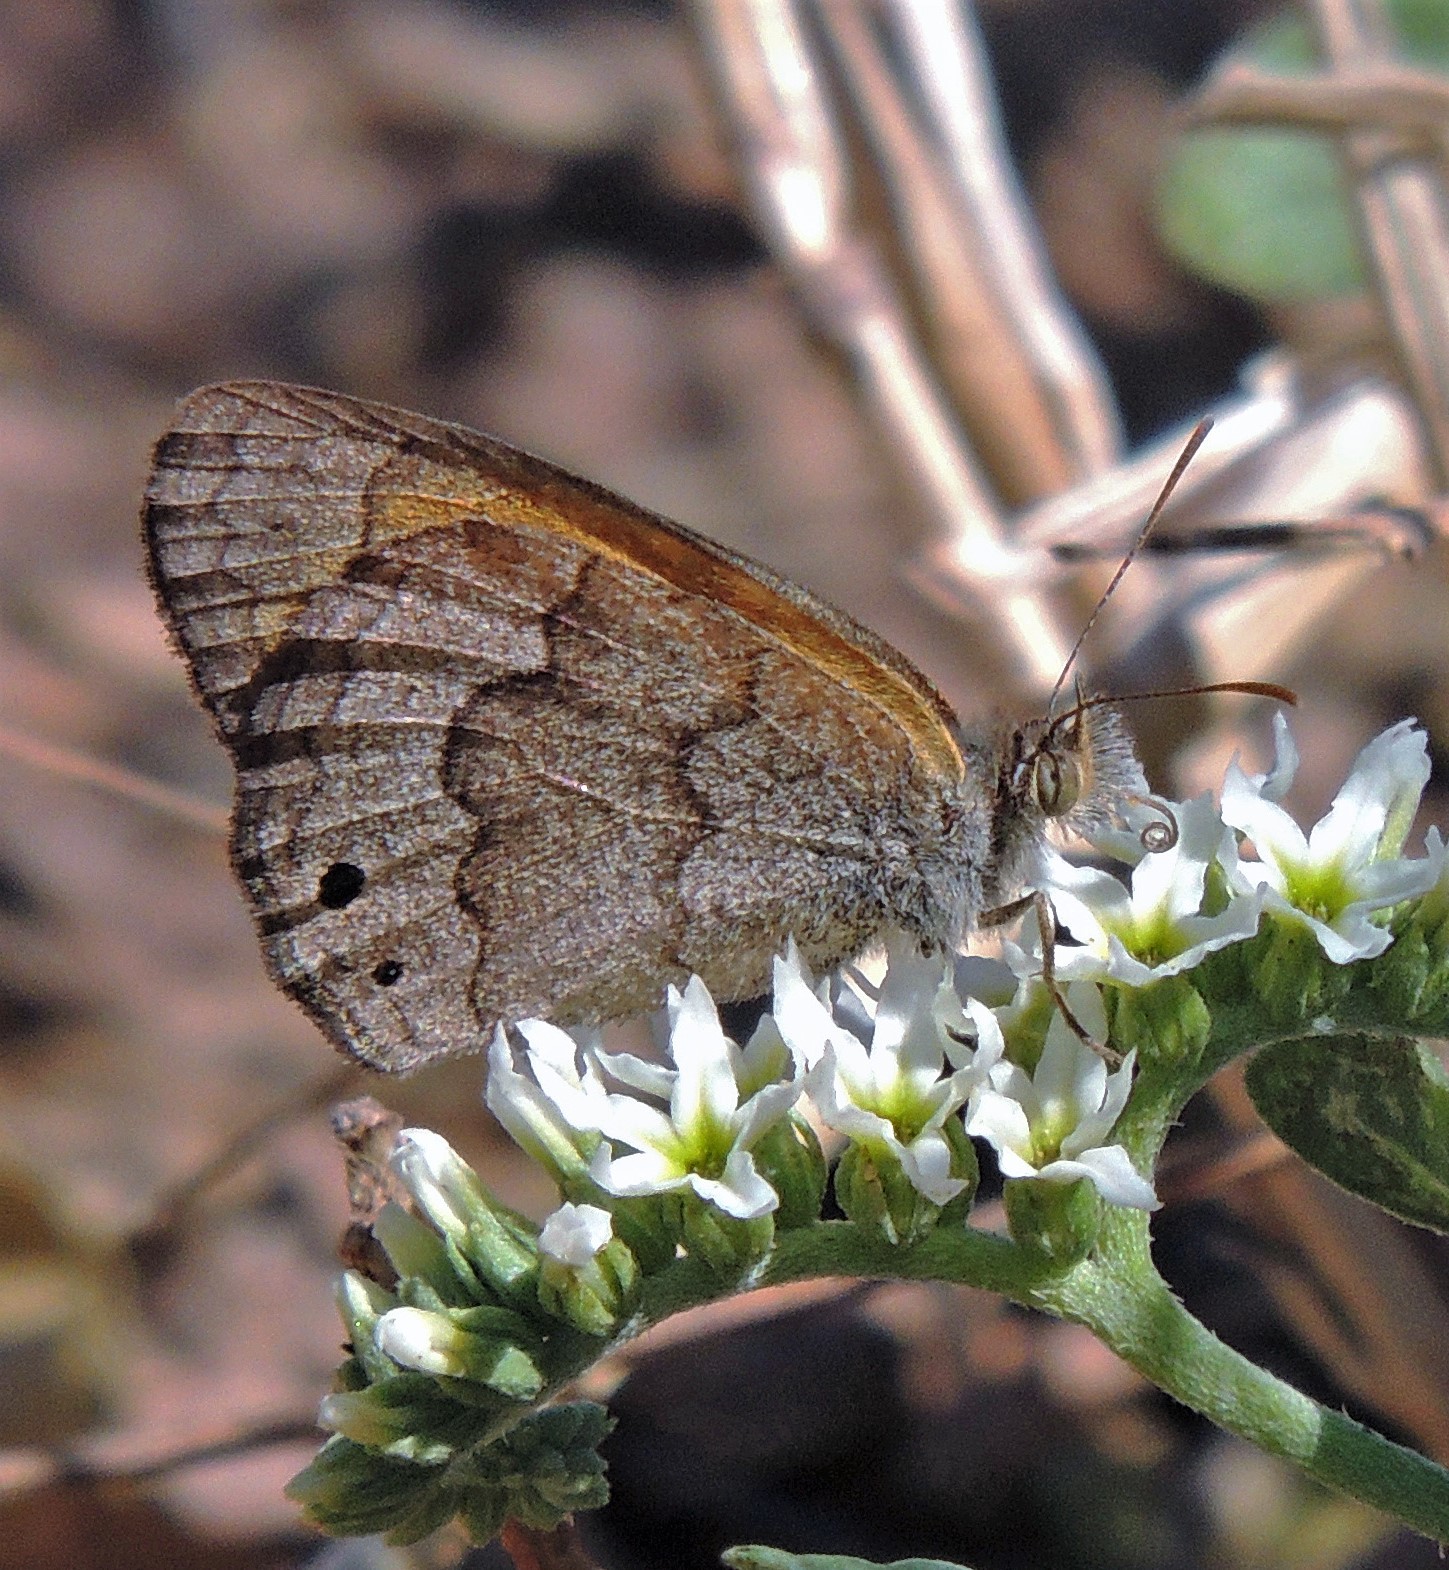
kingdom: Animalia
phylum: Arthropoda
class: Insecta
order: Lepidoptera
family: Nymphalidae
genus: Pharneuptychia
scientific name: Pharneuptychia phares
